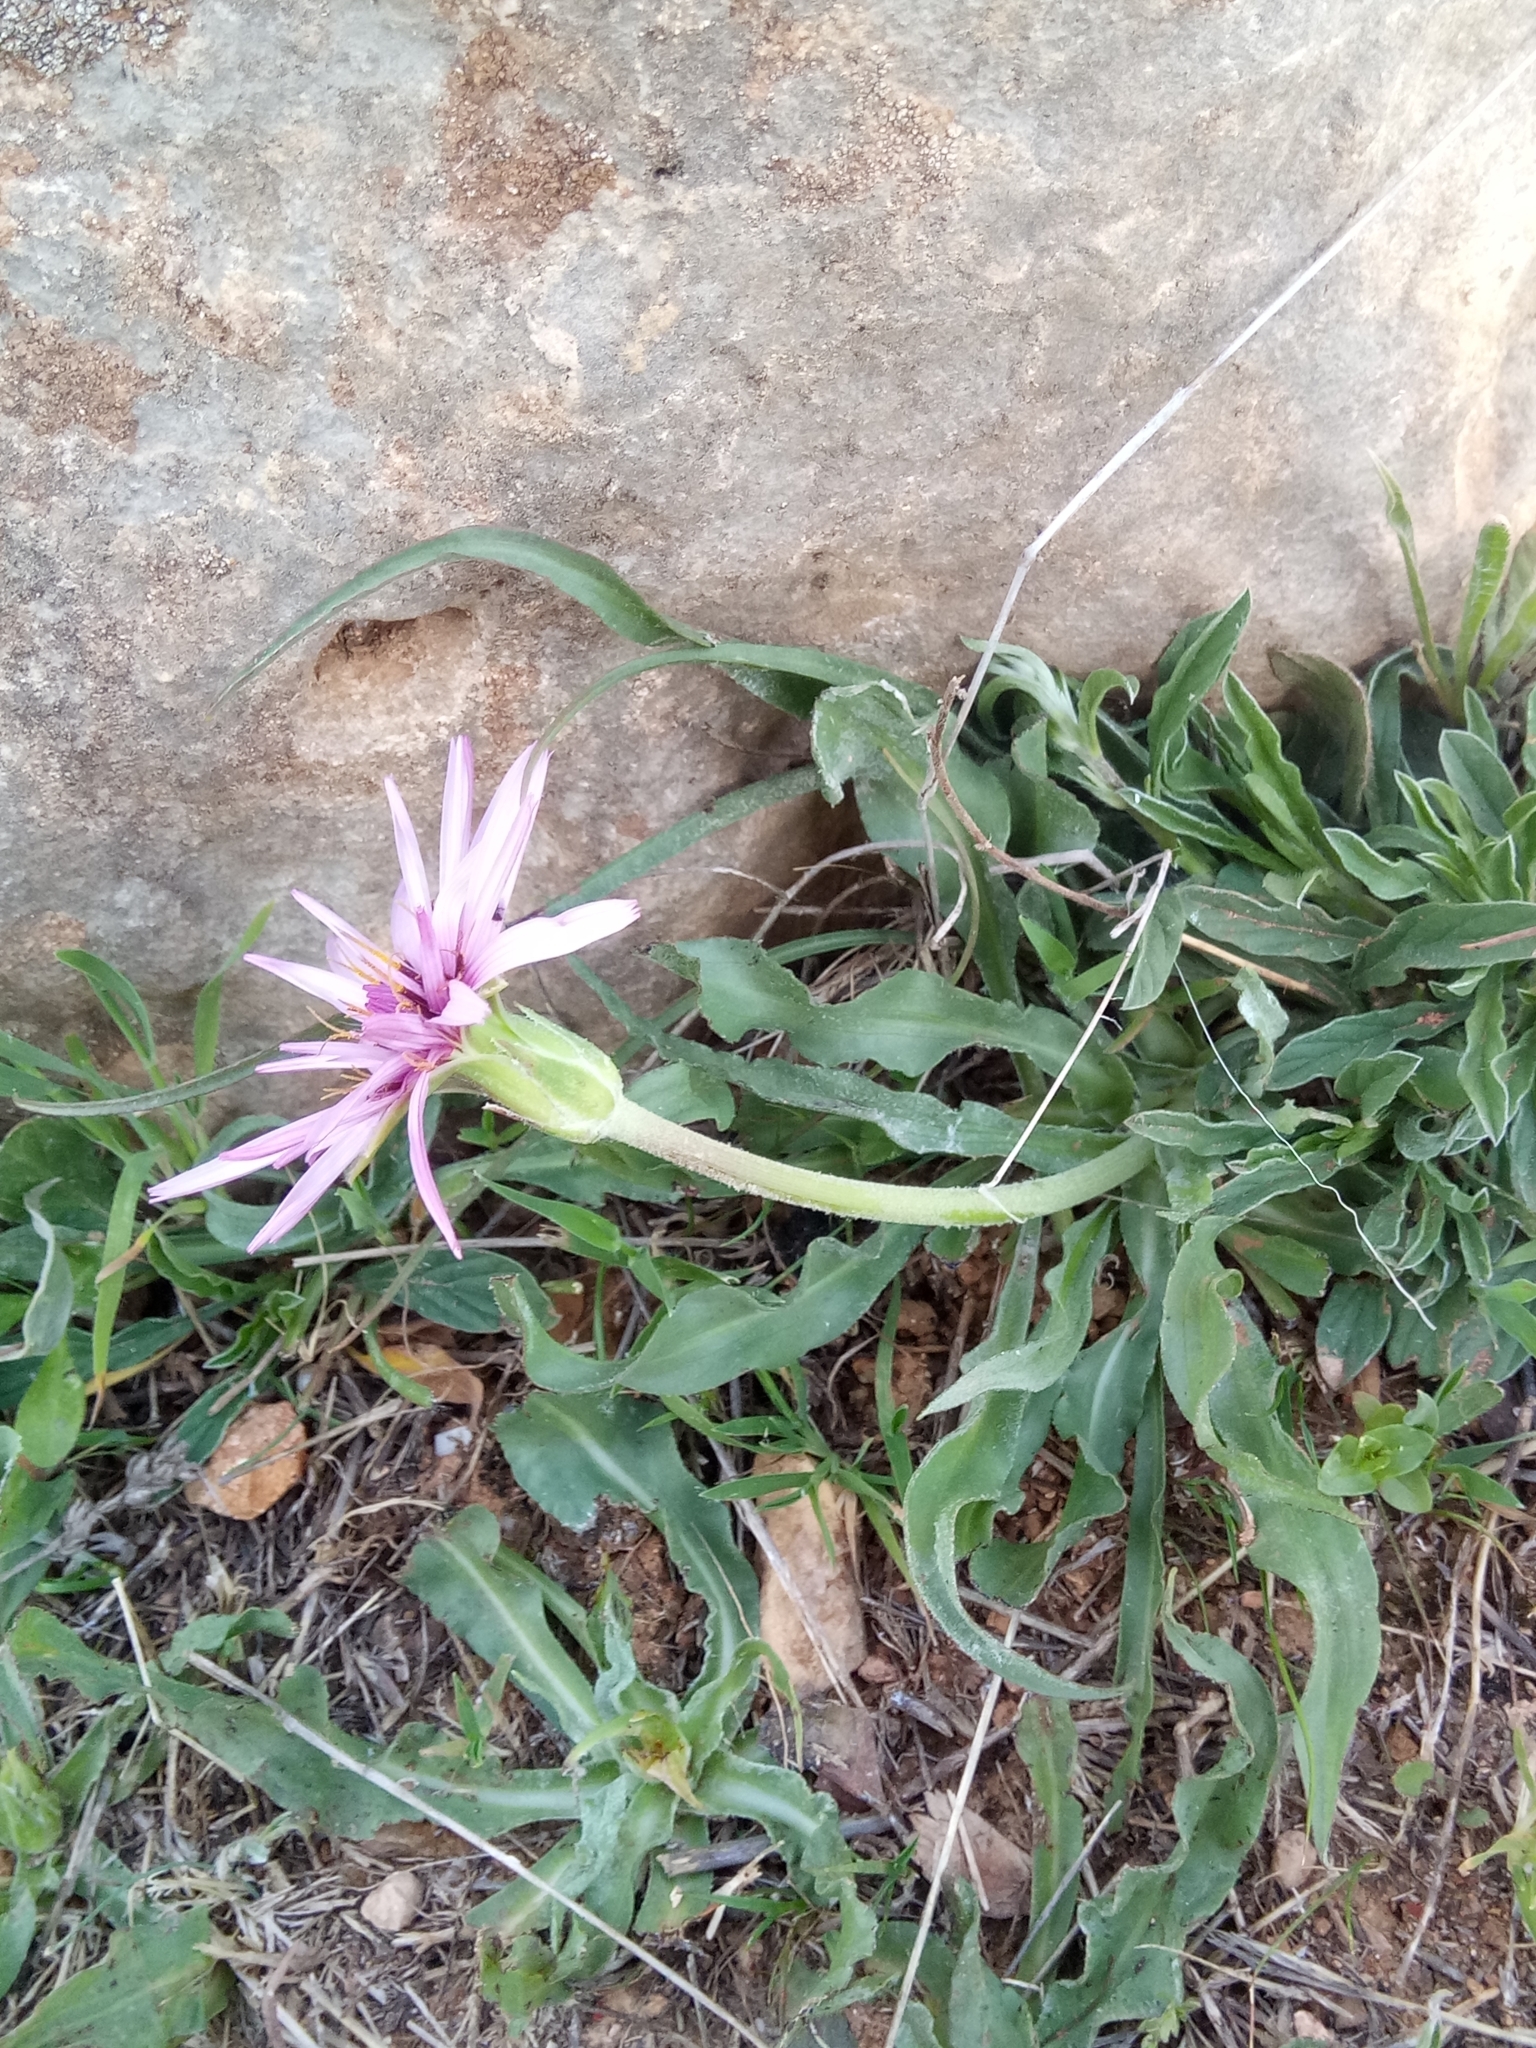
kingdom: Plantae
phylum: Tracheophyta
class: Magnoliopsida
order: Asterales
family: Asteraceae
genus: Pseudopodospermum
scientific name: Pseudopodospermum undulatum
